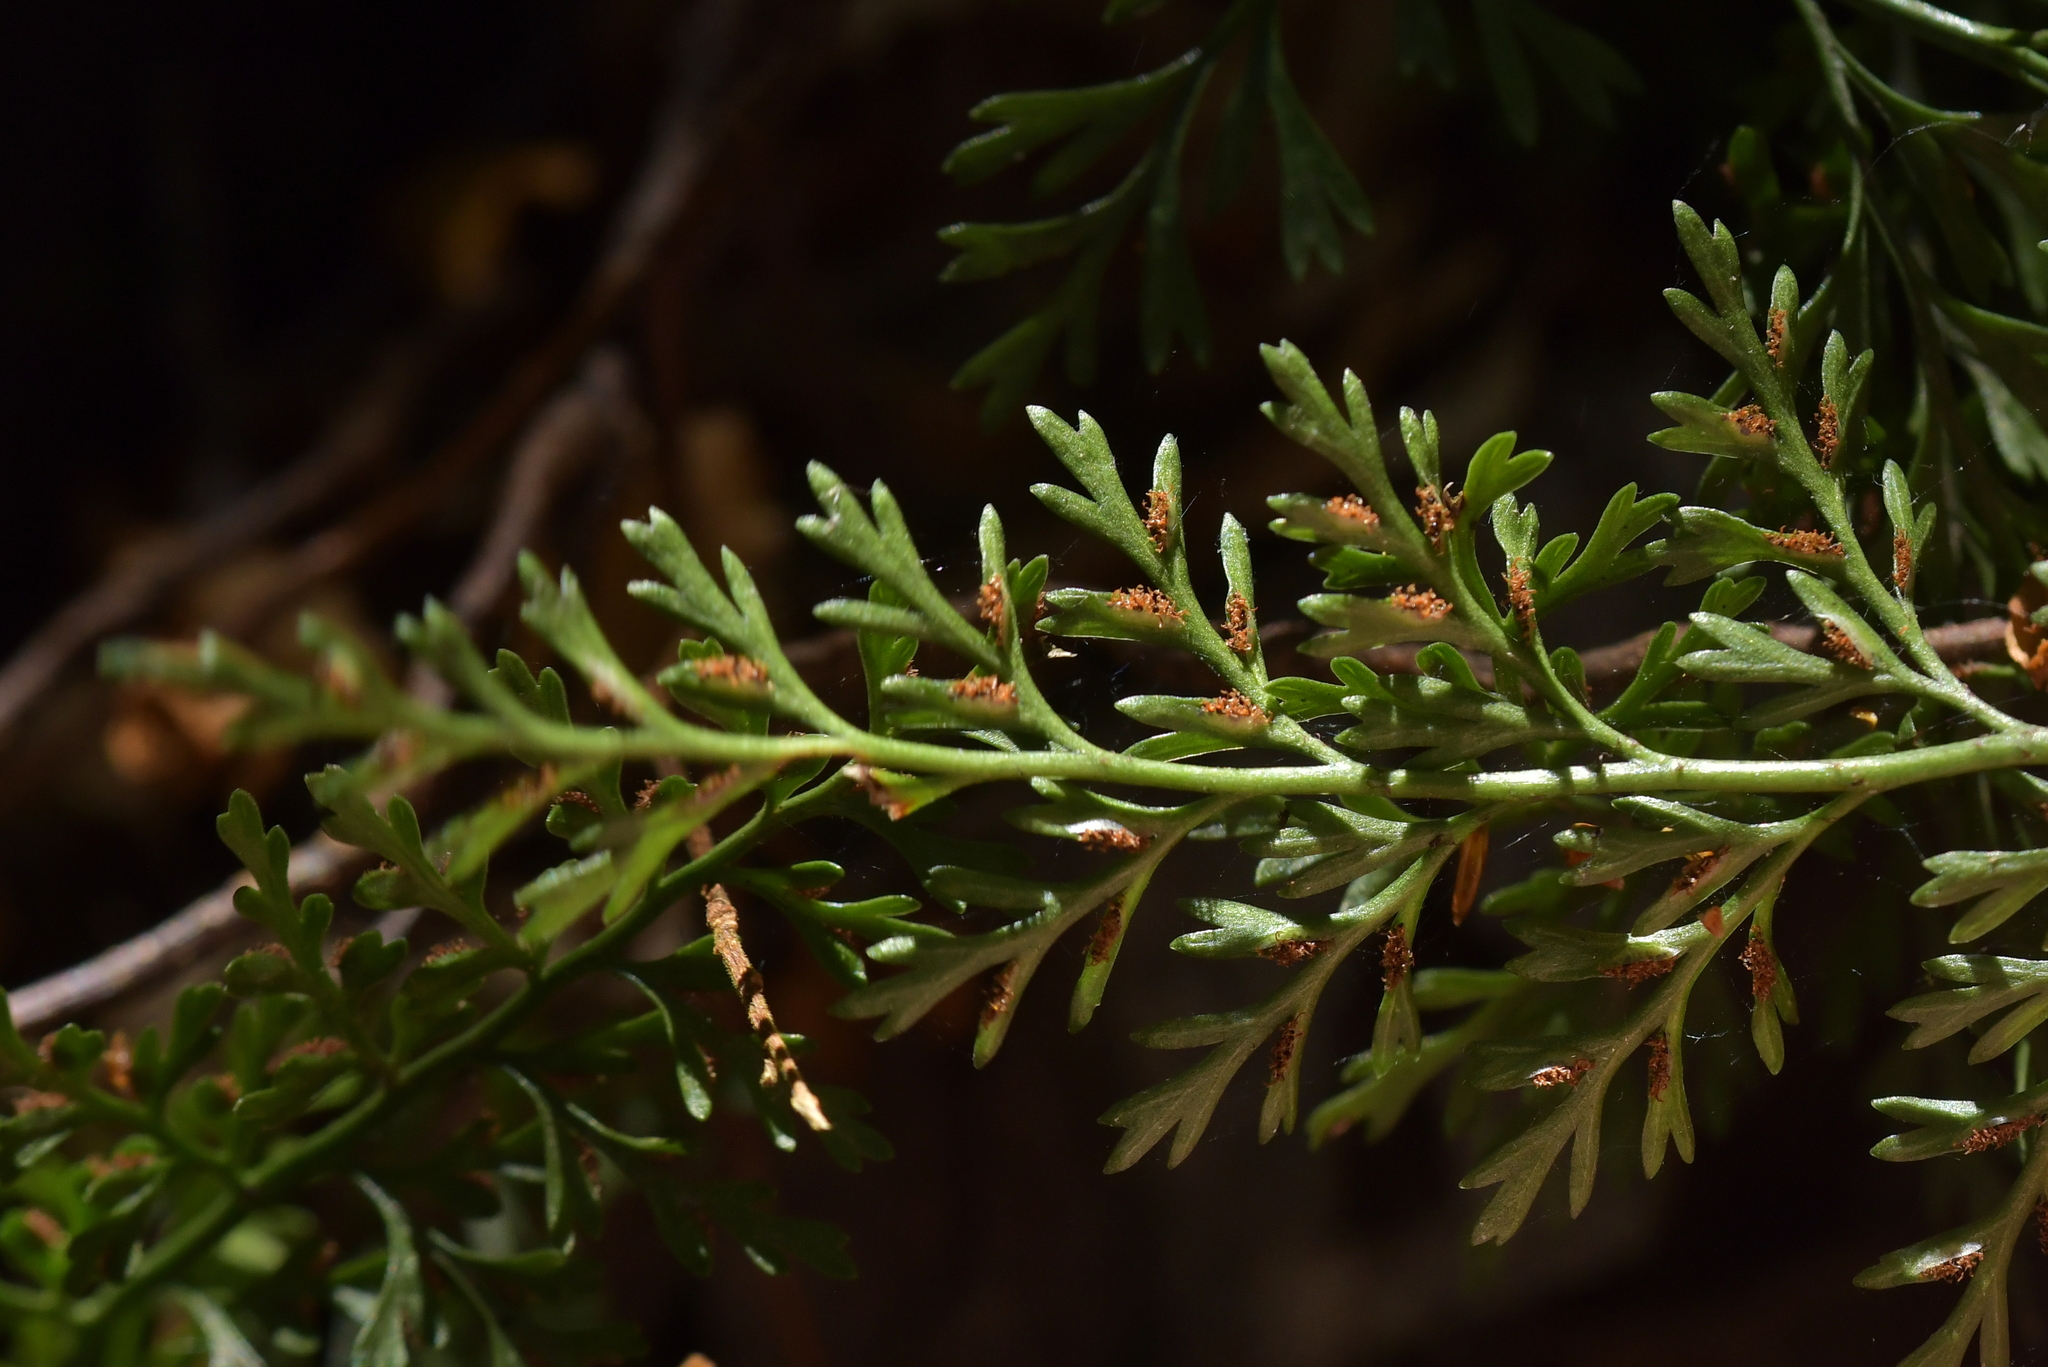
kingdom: Plantae
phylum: Tracheophyta
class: Polypodiopsida
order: Polypodiales
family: Aspleniaceae
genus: Asplenium
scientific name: Asplenium richardii
